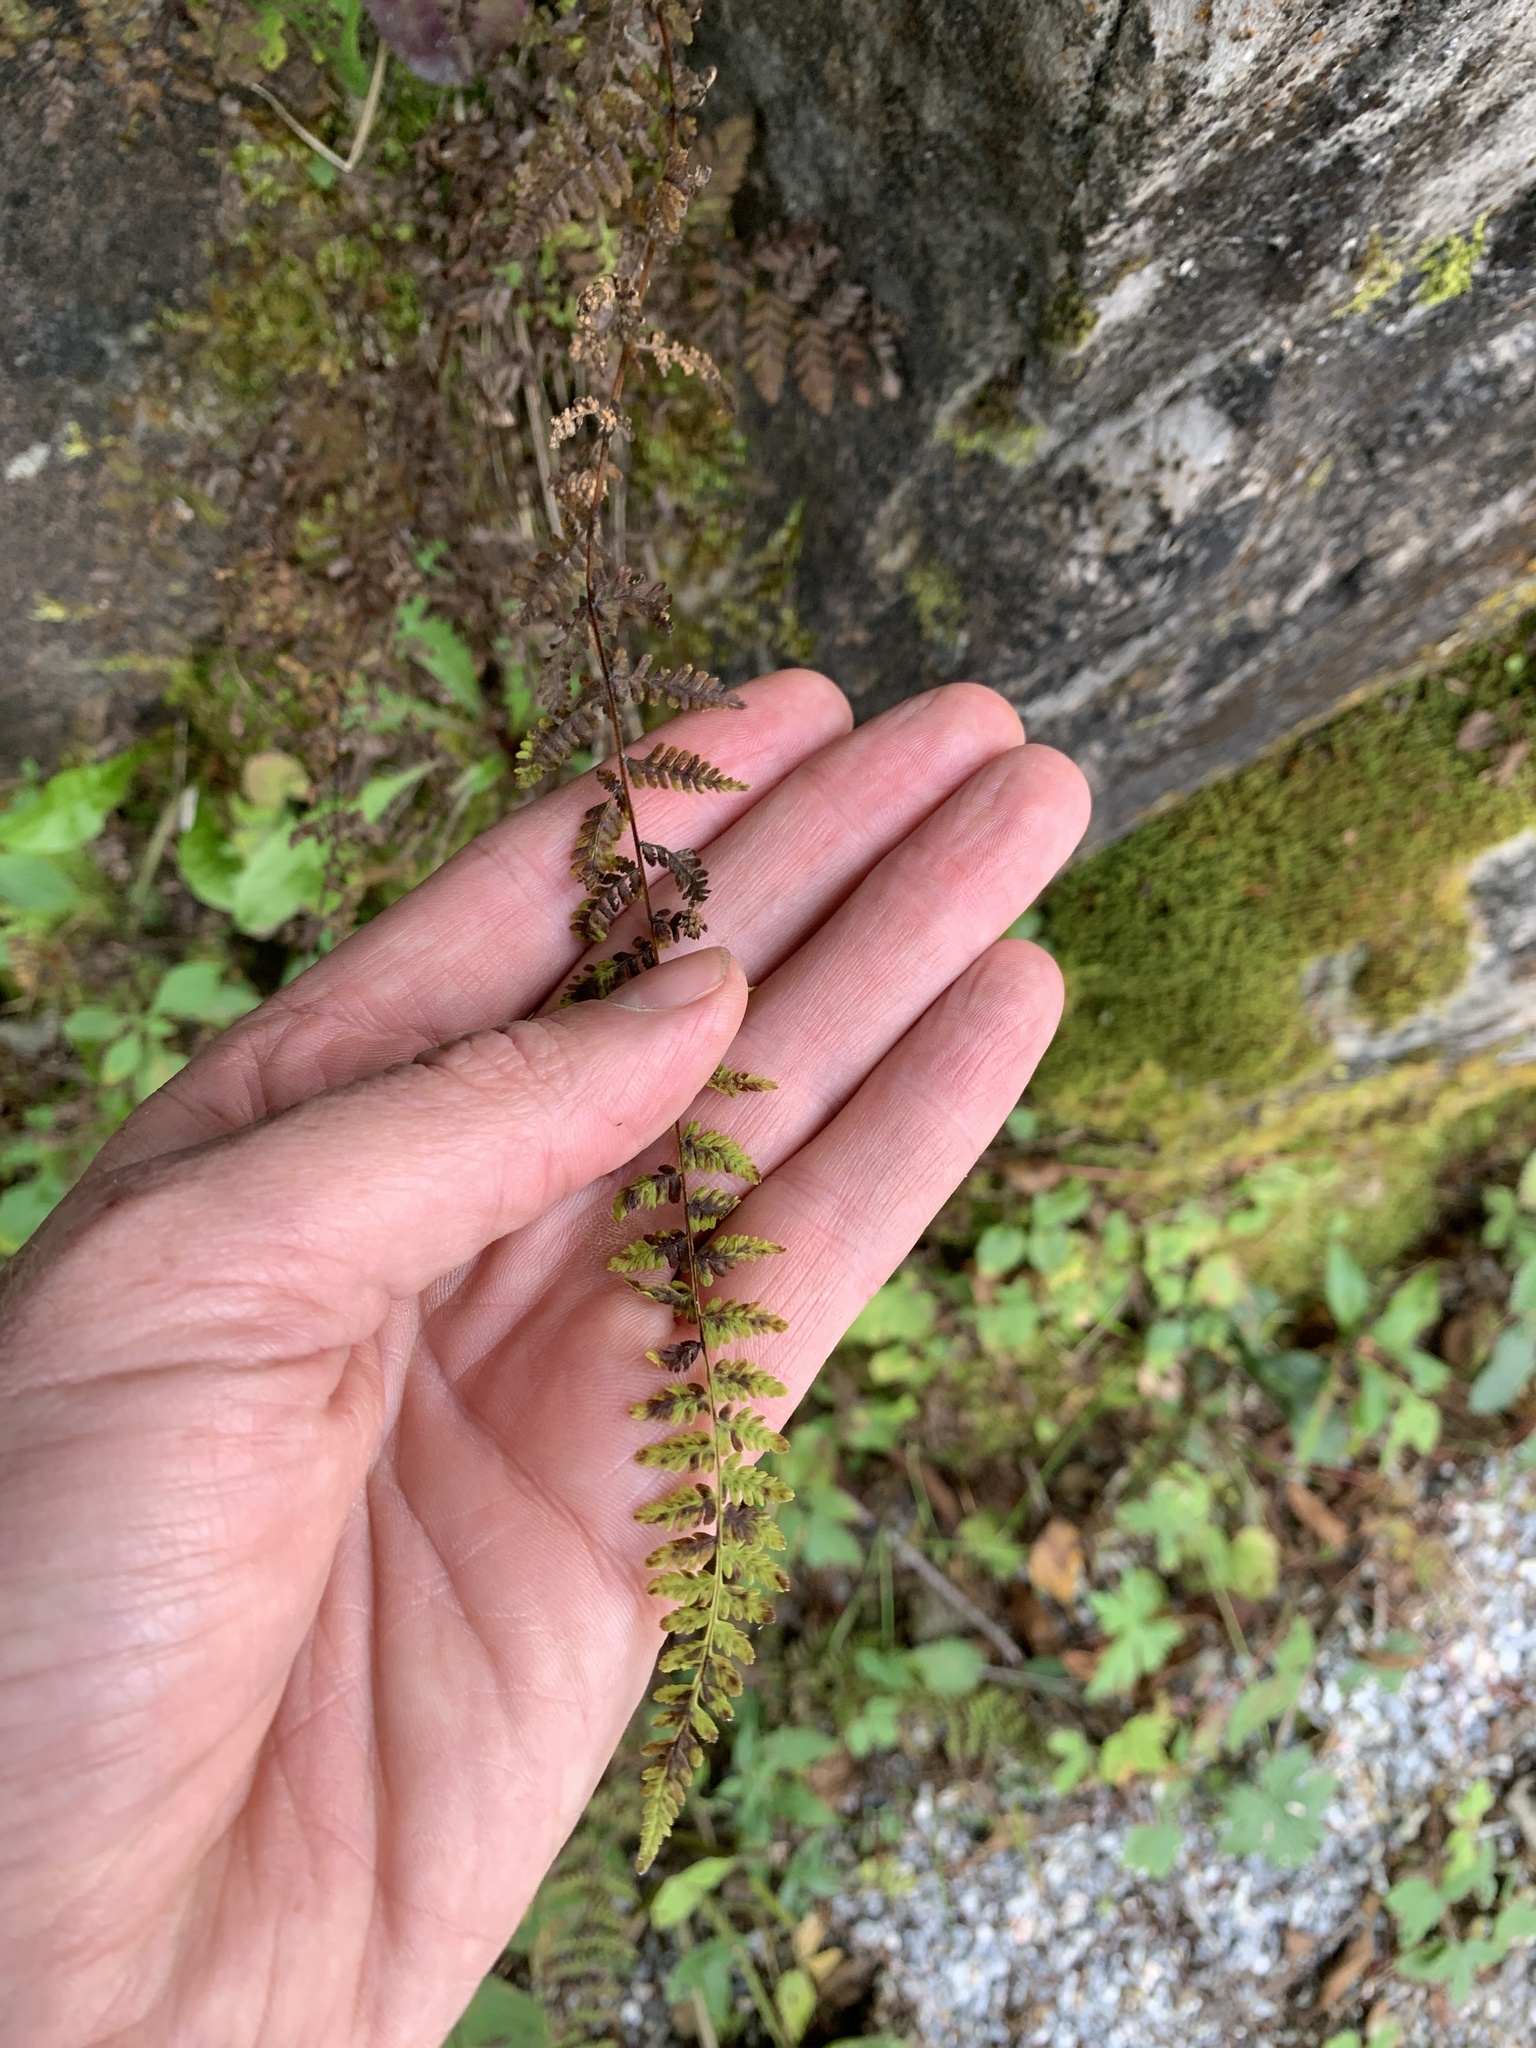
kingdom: Plantae
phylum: Tracheophyta
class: Polypodiopsida
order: Polypodiales
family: Cystopteridaceae
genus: Cystopteris
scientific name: Cystopteris bulbifera
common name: Bulblet bladder fern
